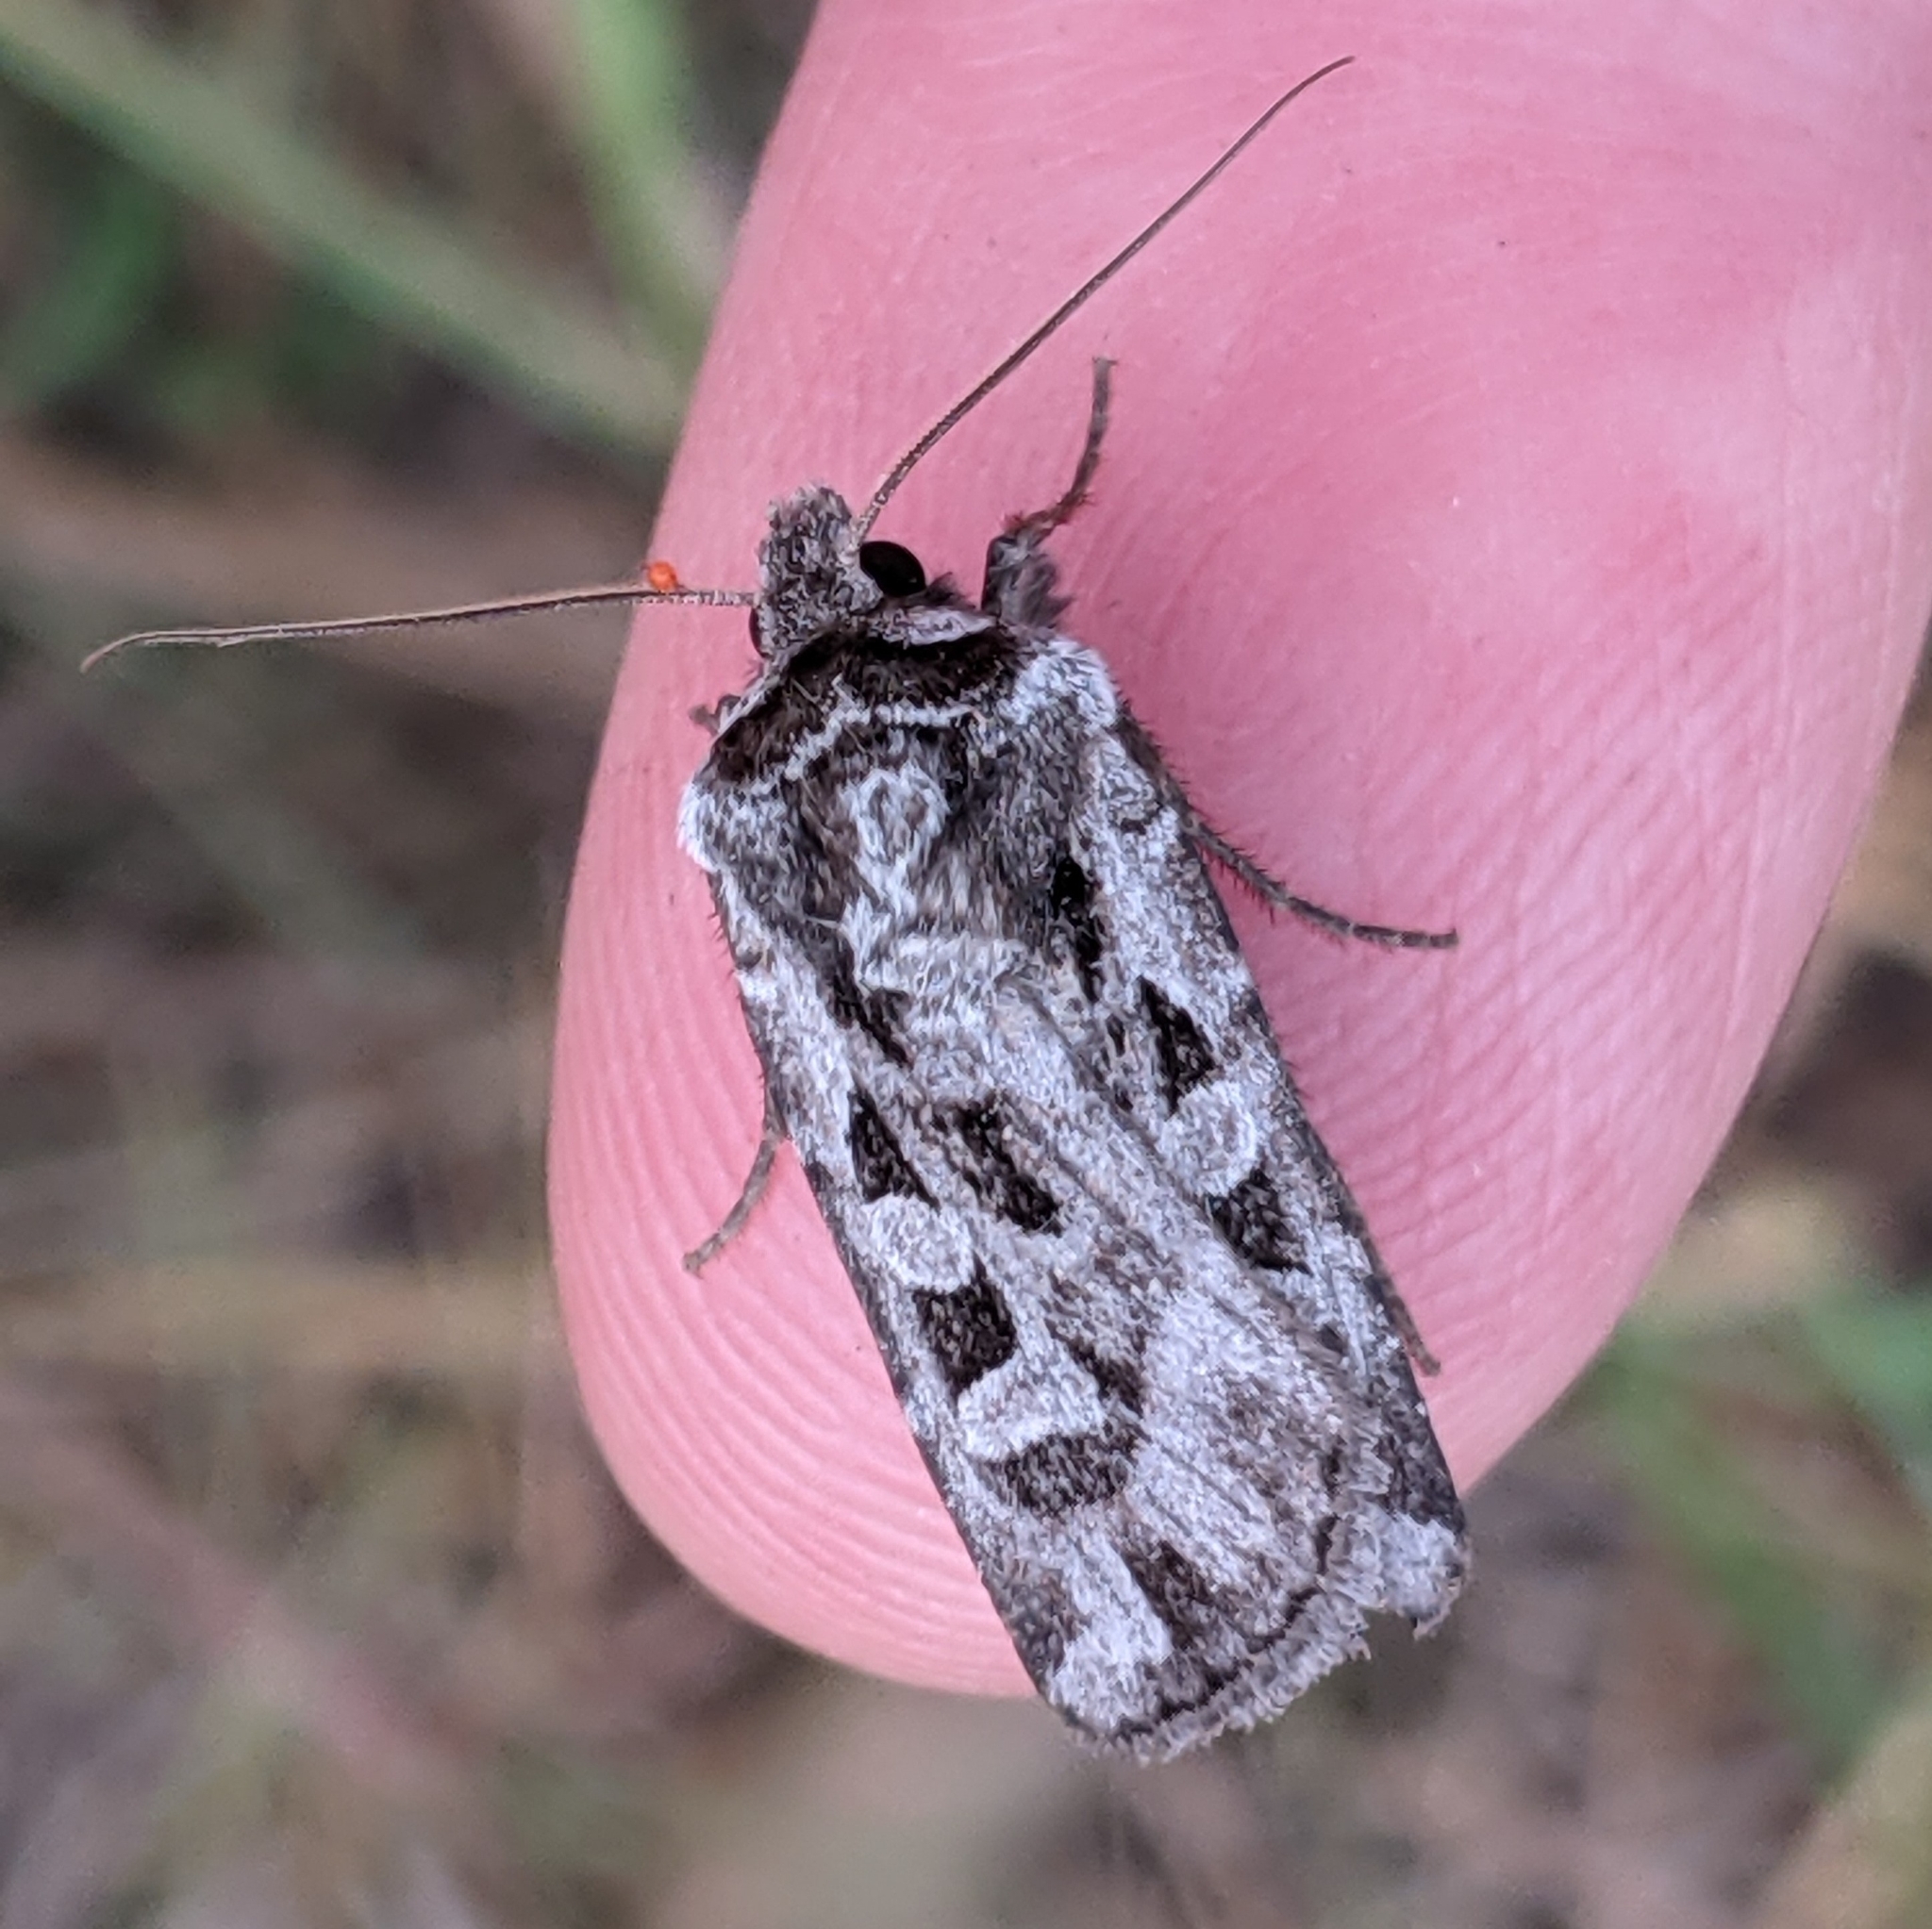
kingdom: Animalia
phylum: Arthropoda
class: Insecta
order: Lepidoptera
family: Noctuidae
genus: Euxoa
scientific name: Euxoa auripennis
